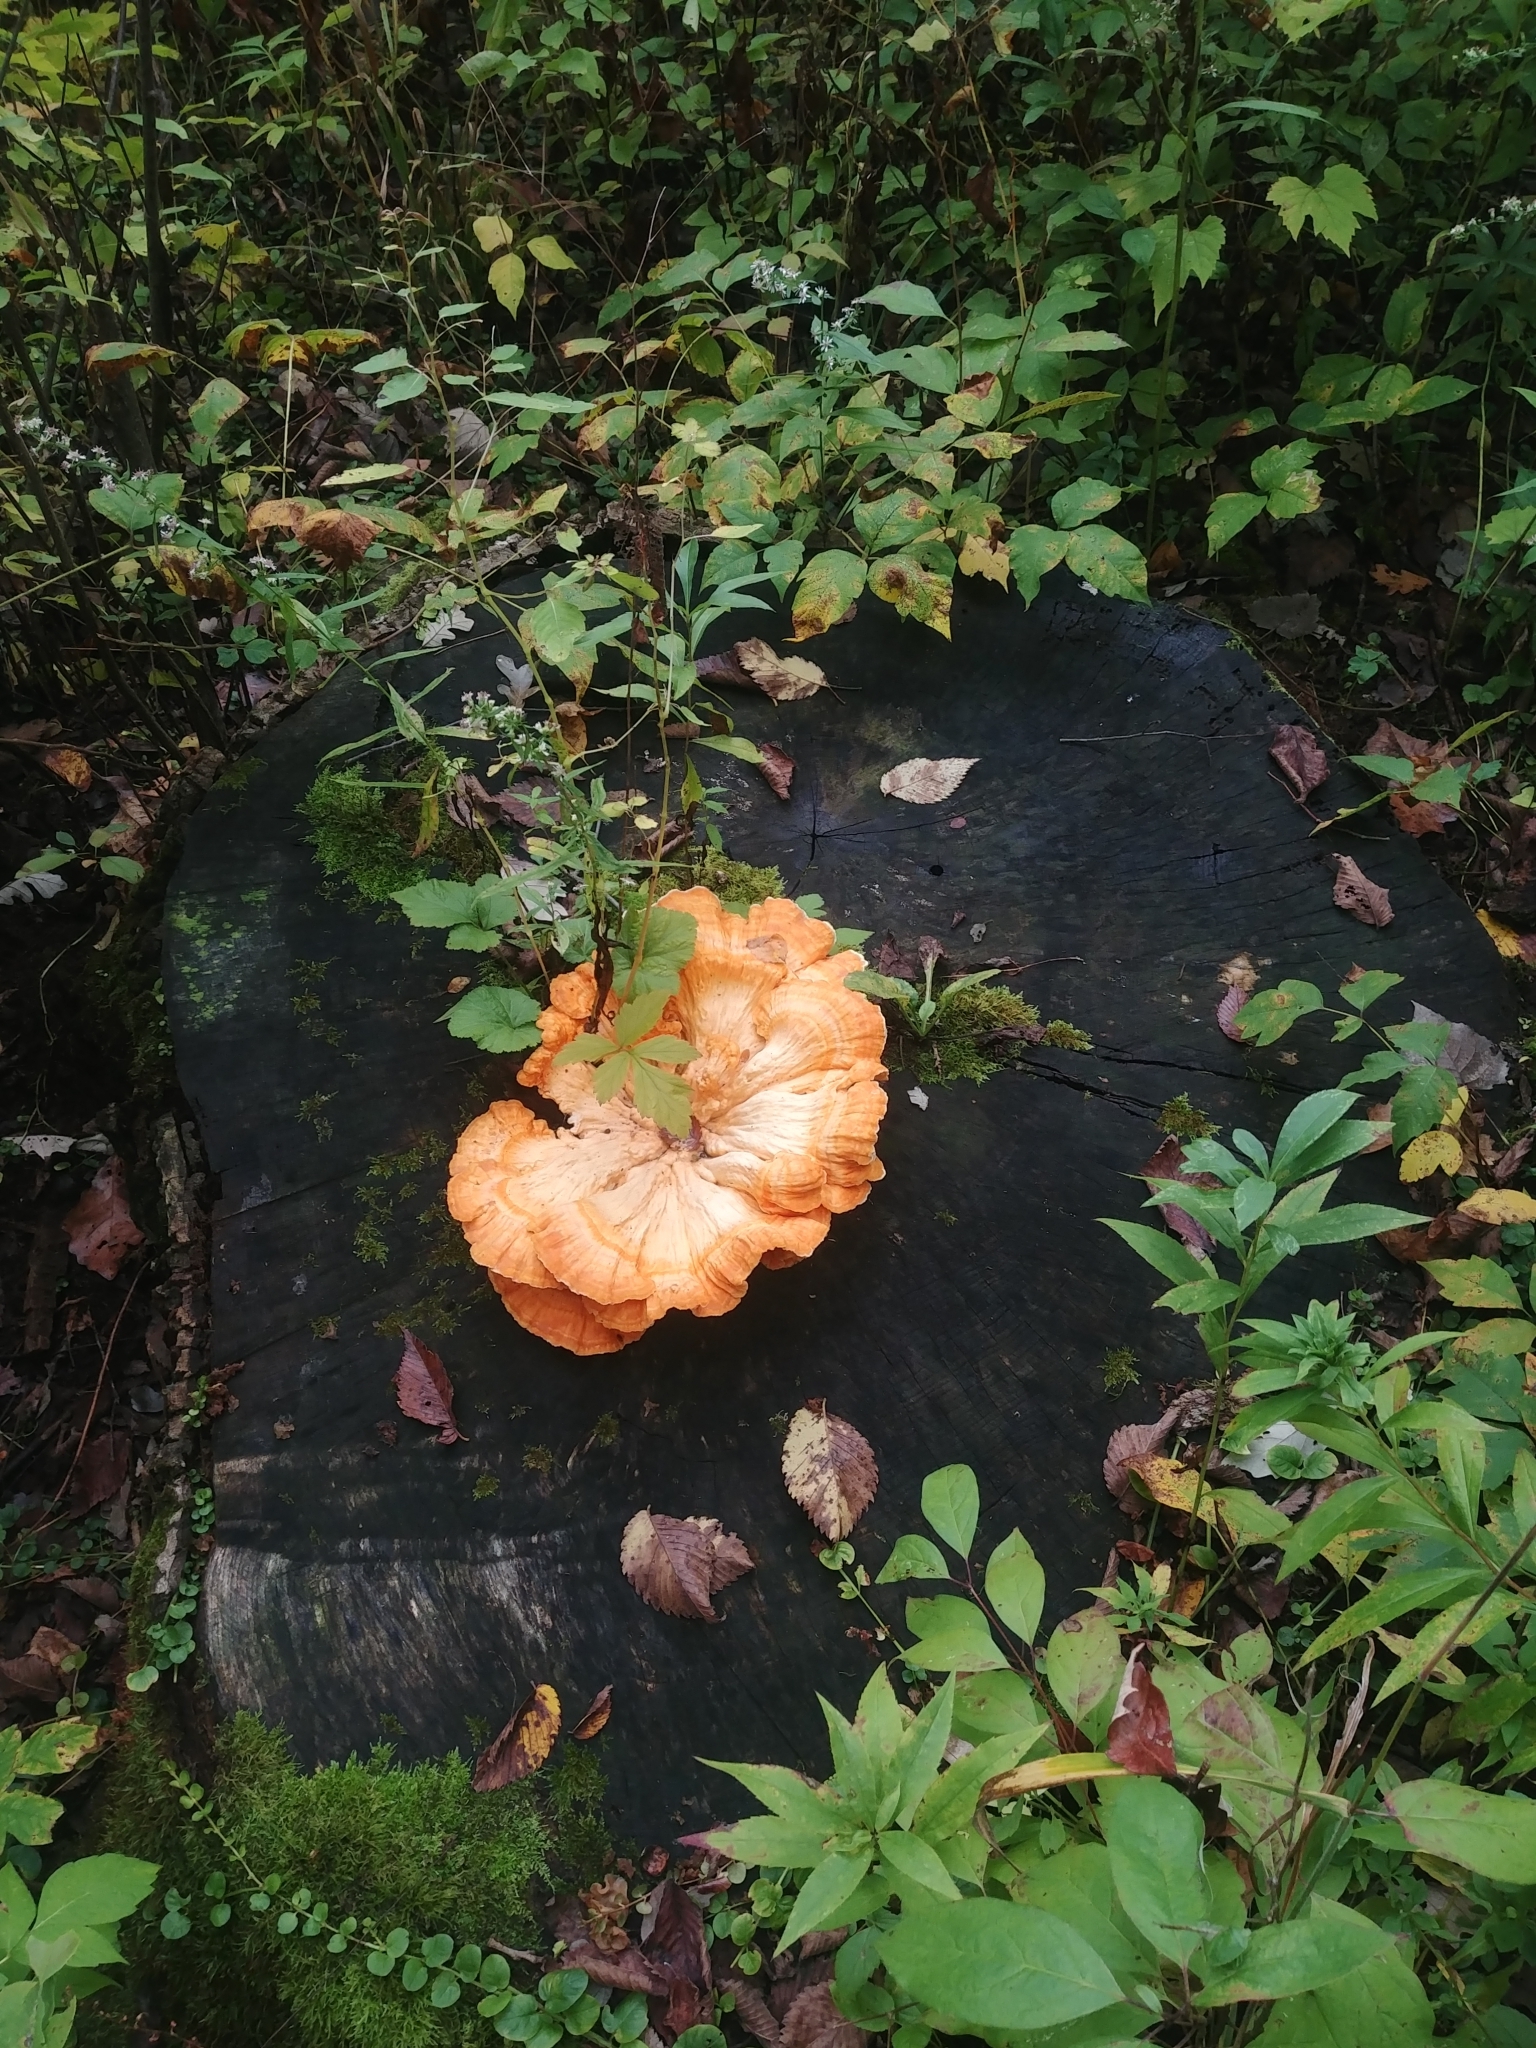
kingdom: Fungi
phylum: Basidiomycota
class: Agaricomycetes
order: Polyporales
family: Laetiporaceae
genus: Laetiporus
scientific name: Laetiporus sulphureus
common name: Chicken of the woods
